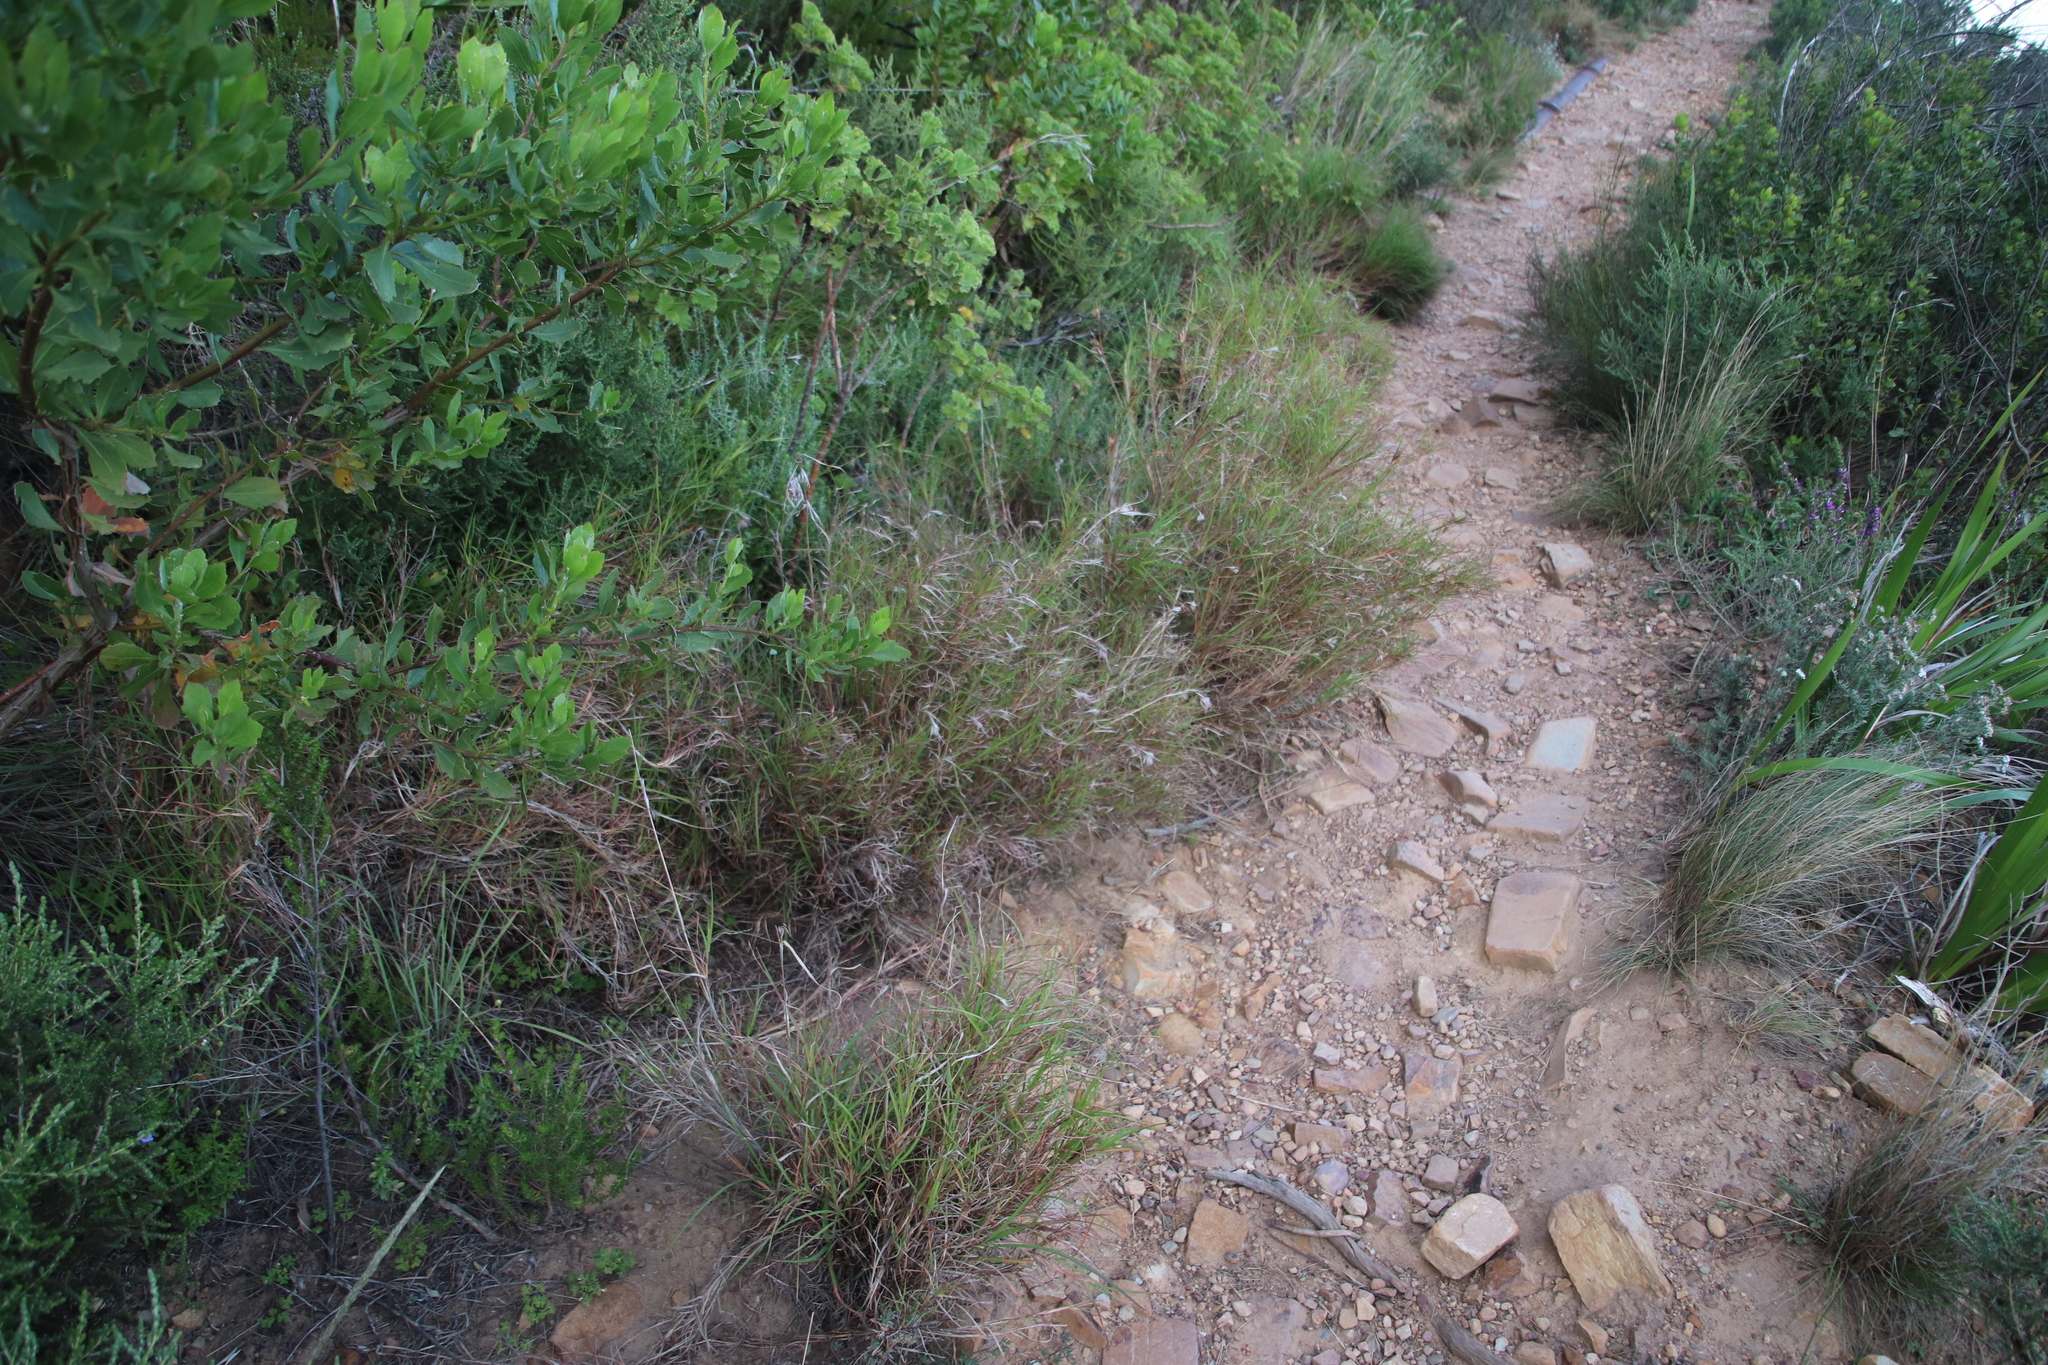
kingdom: Plantae
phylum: Tracheophyta
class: Liliopsida
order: Poales
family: Poaceae
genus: Themeda
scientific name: Themeda triandra
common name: Kangaroo grass
